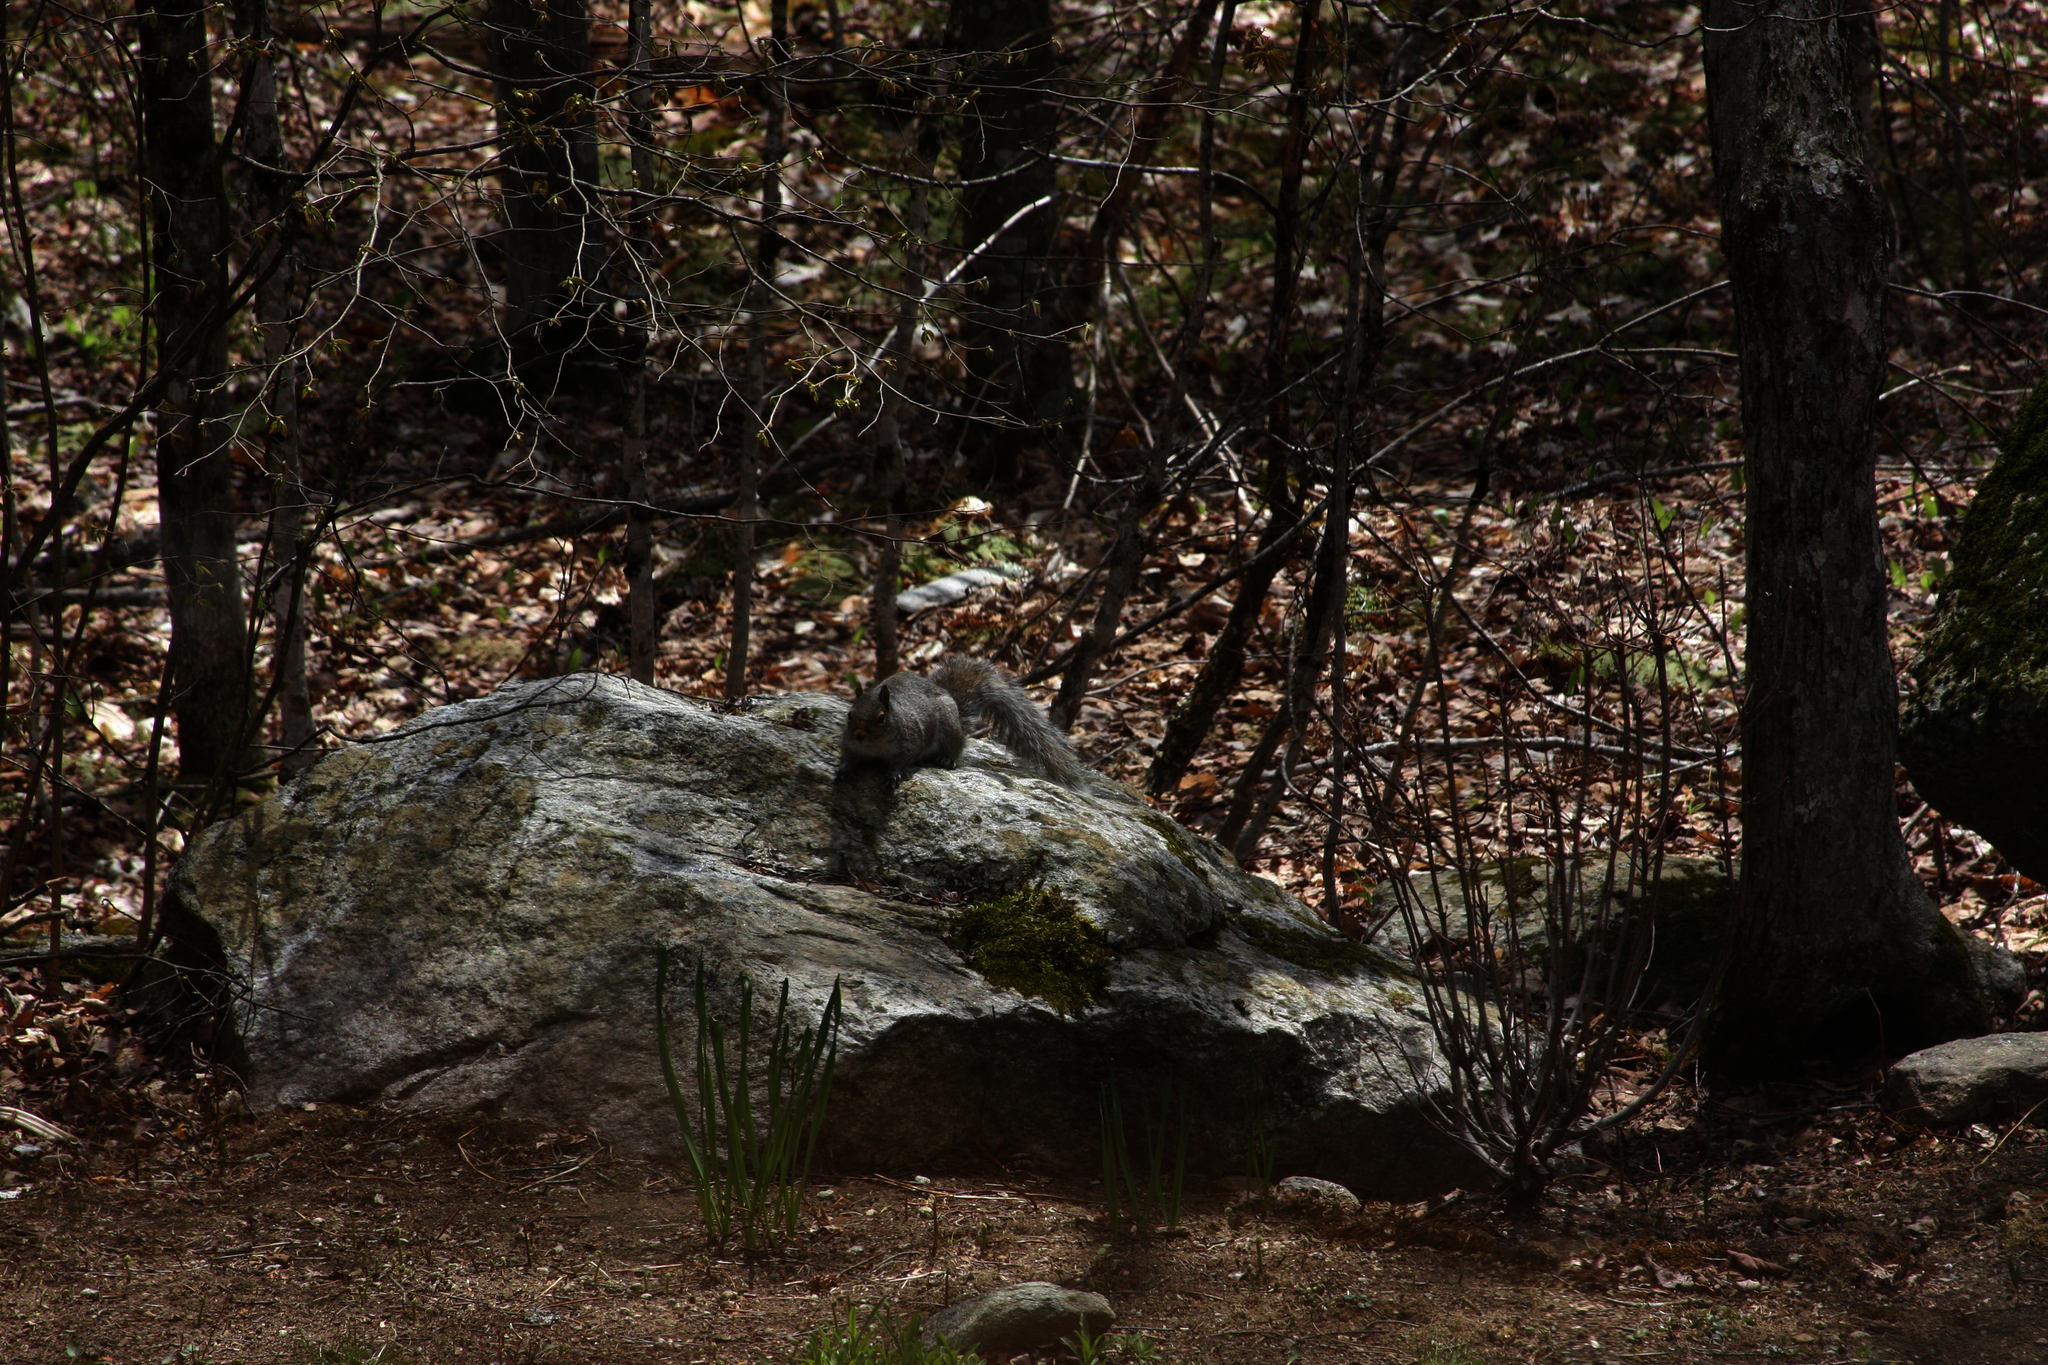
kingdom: Animalia
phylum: Chordata
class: Mammalia
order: Rodentia
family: Sciuridae
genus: Sciurus
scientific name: Sciurus carolinensis
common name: Eastern gray squirrel
